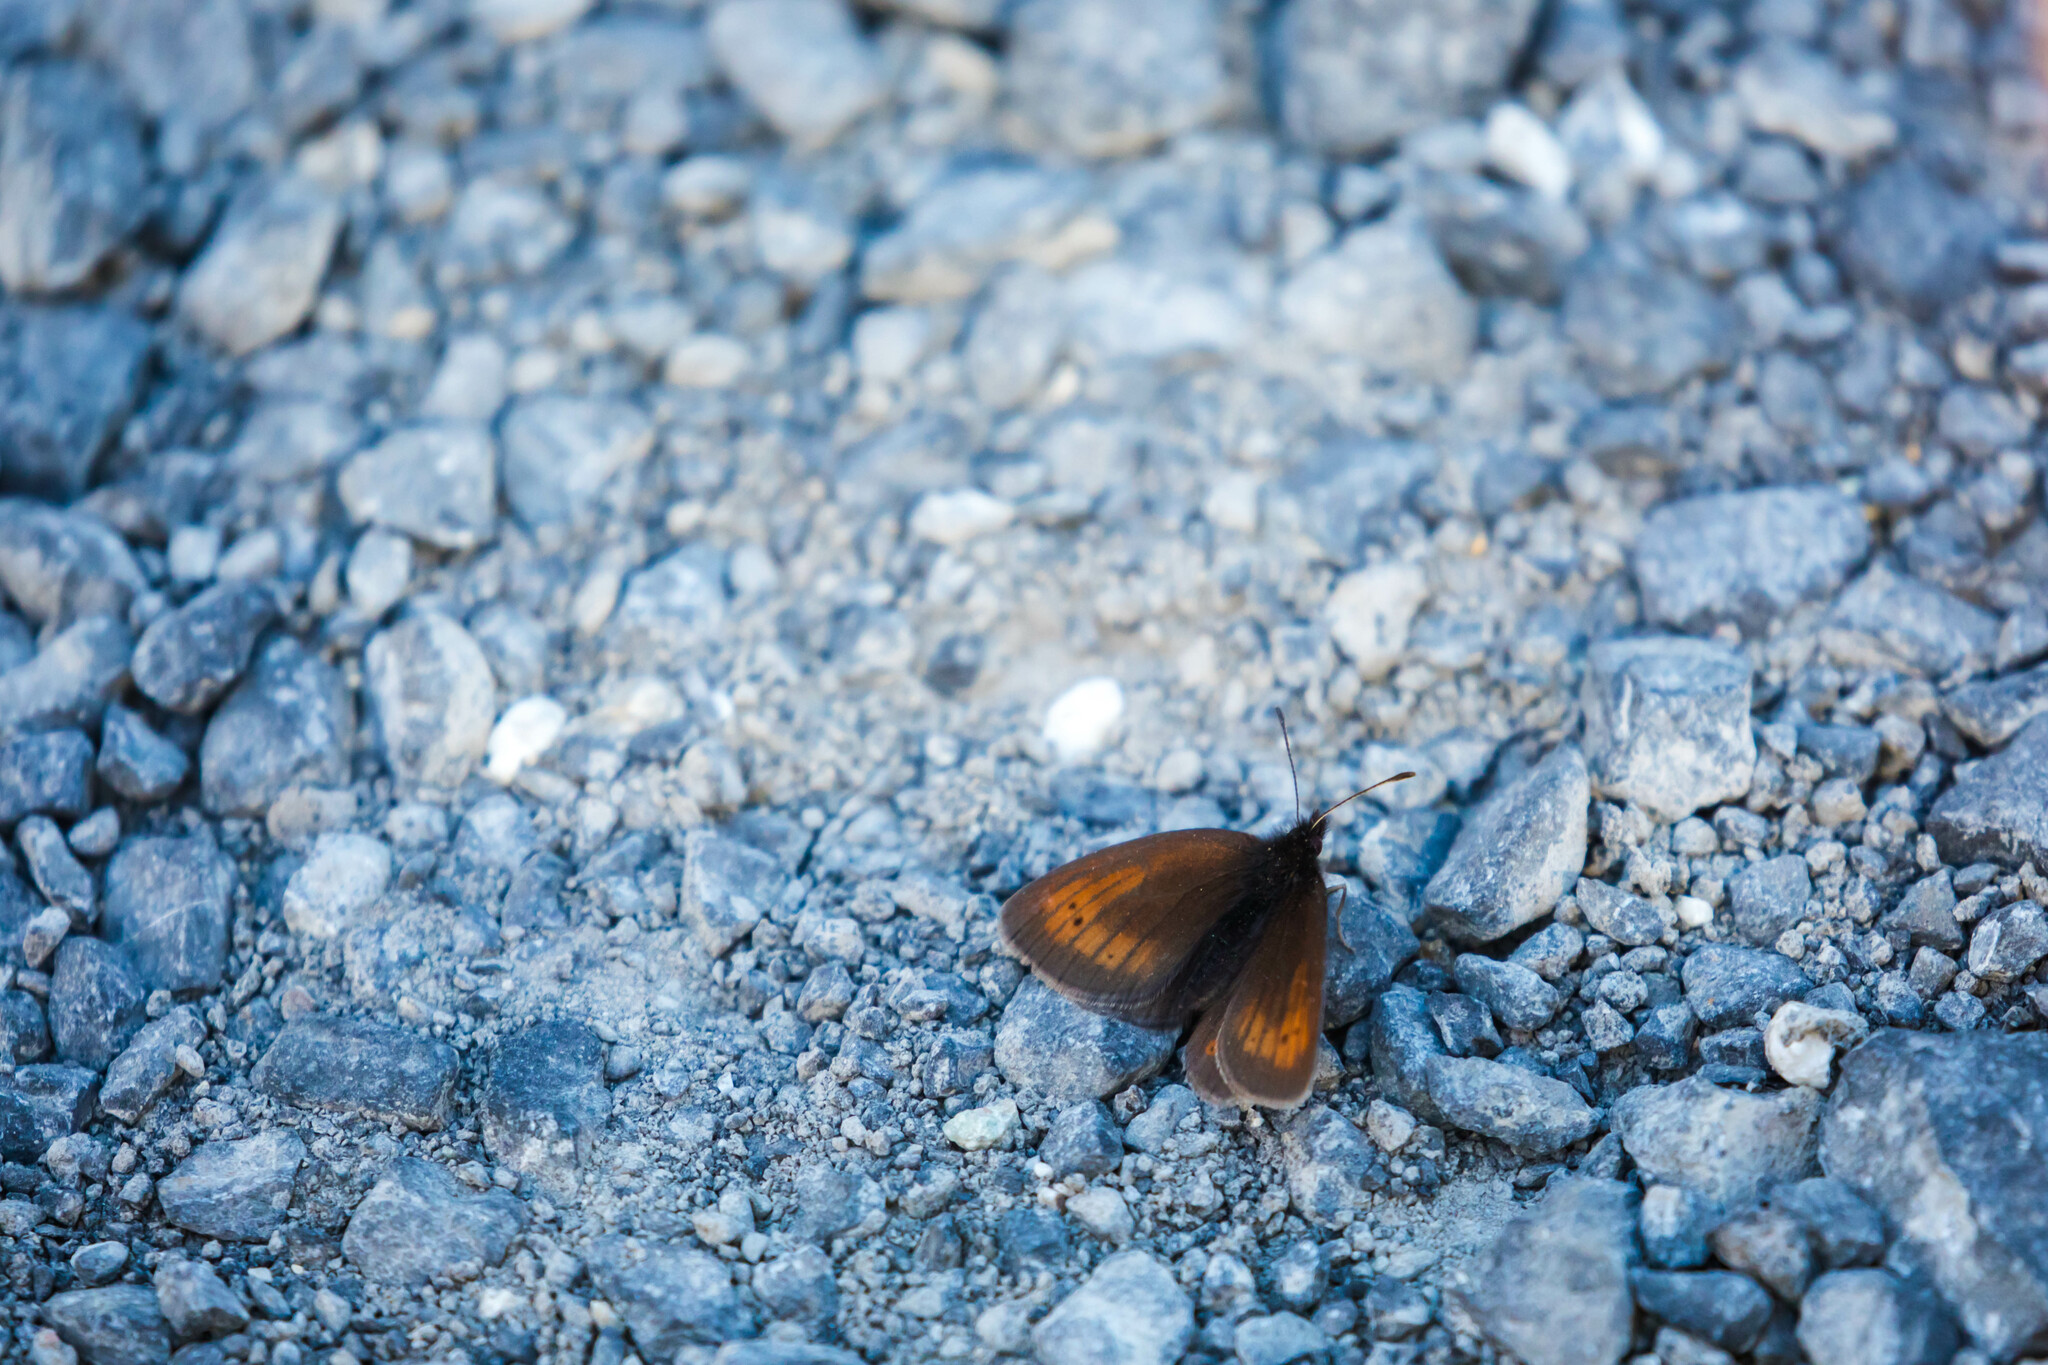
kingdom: Animalia
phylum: Arthropoda
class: Insecta
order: Lepidoptera
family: Nymphalidae
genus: Erebia
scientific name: Erebia epiphron
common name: Mountain ringlet
